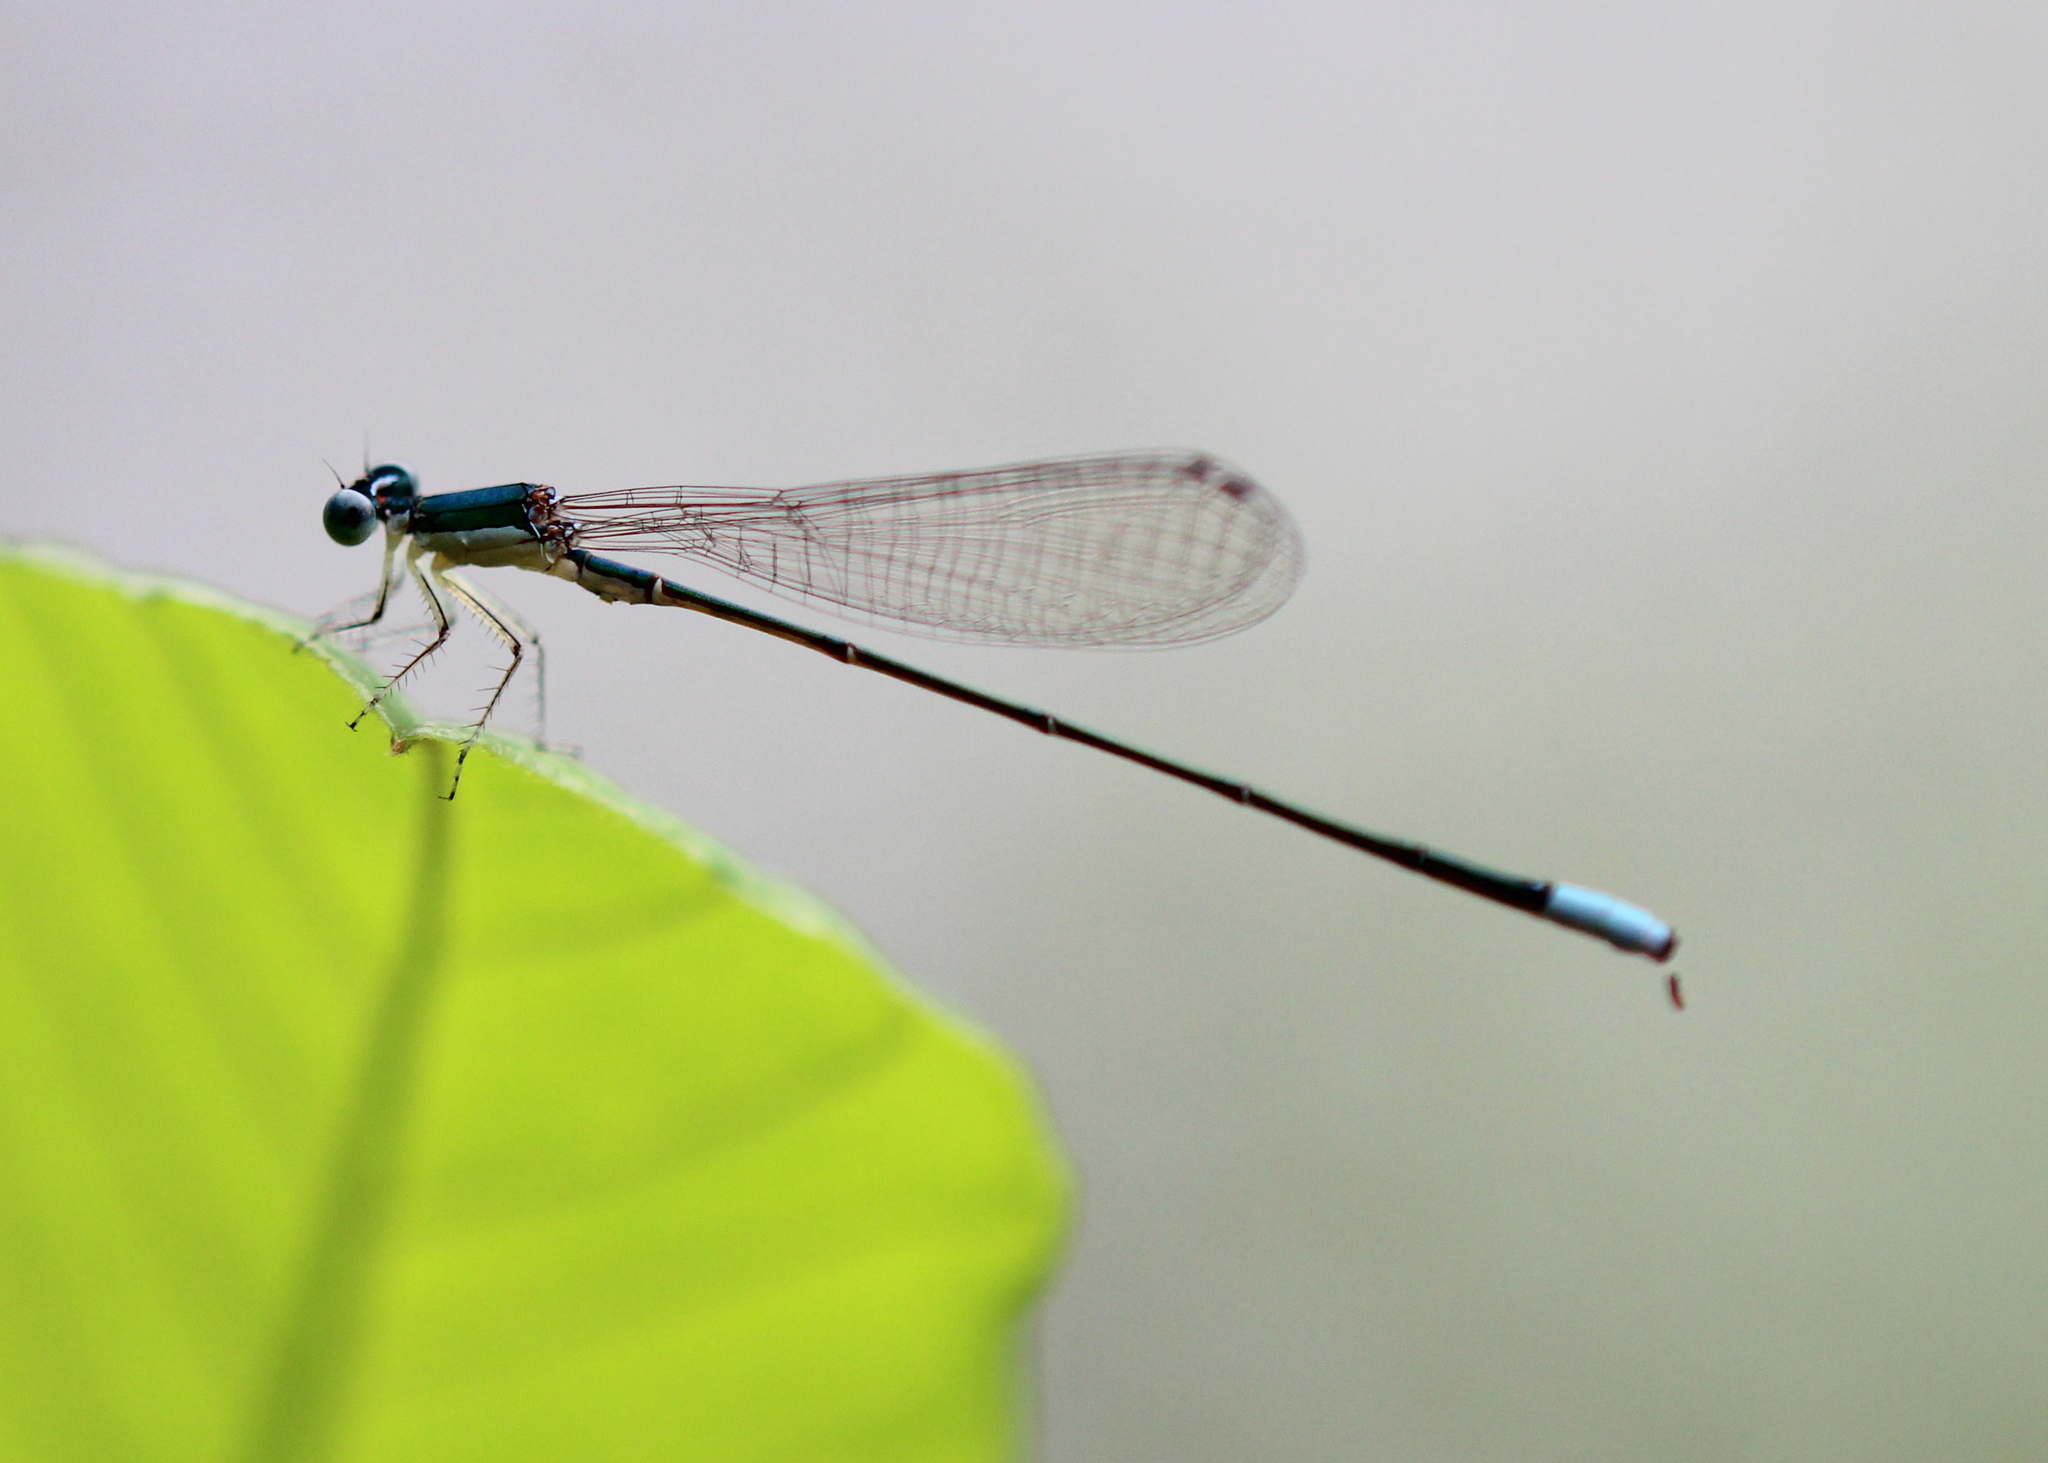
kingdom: Animalia
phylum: Arthropoda
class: Insecta
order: Odonata
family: Coenagrionidae
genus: Nehalennia
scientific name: Nehalennia gracilis
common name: Sphagnum sprite
